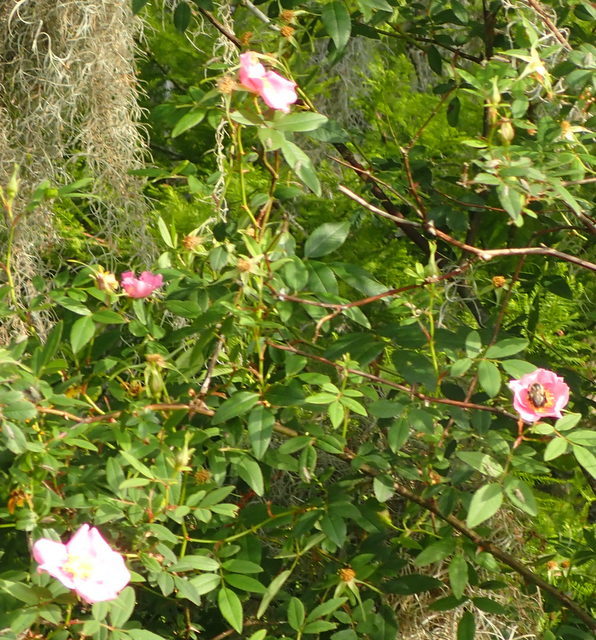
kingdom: Plantae
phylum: Tracheophyta
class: Magnoliopsida
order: Rosales
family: Rosaceae
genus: Rosa
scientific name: Rosa palustris
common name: Swamp rose
